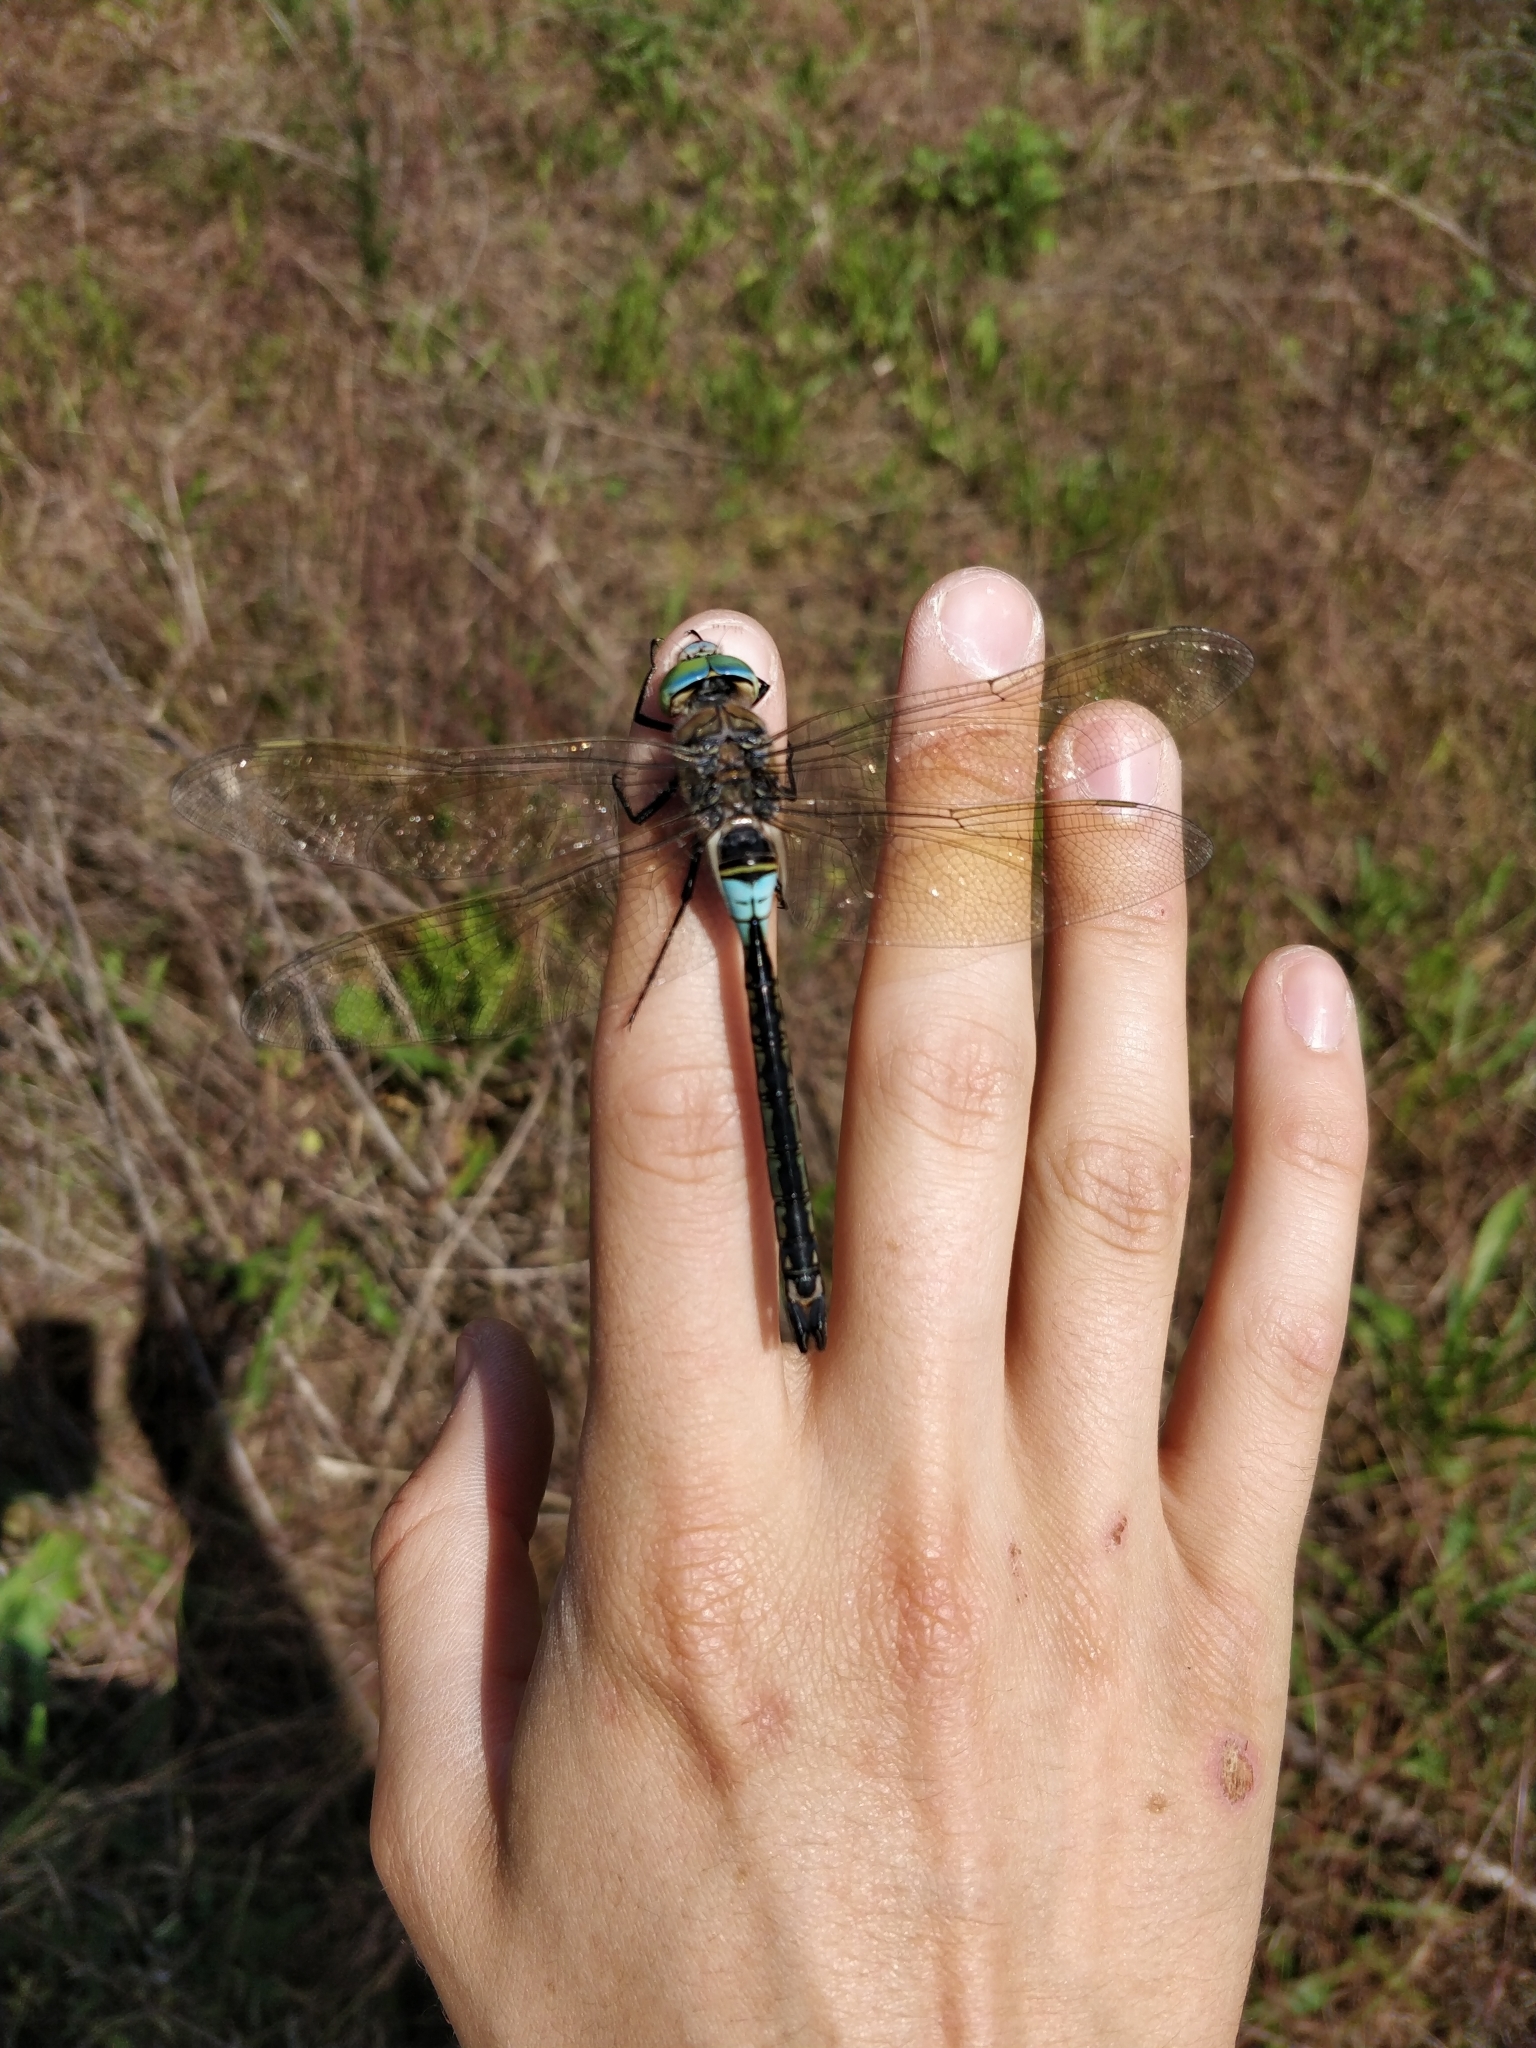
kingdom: Animalia
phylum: Arthropoda
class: Insecta
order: Odonata
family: Aeshnidae
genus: Anax
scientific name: Anax parthenope
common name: Lesser emperor
